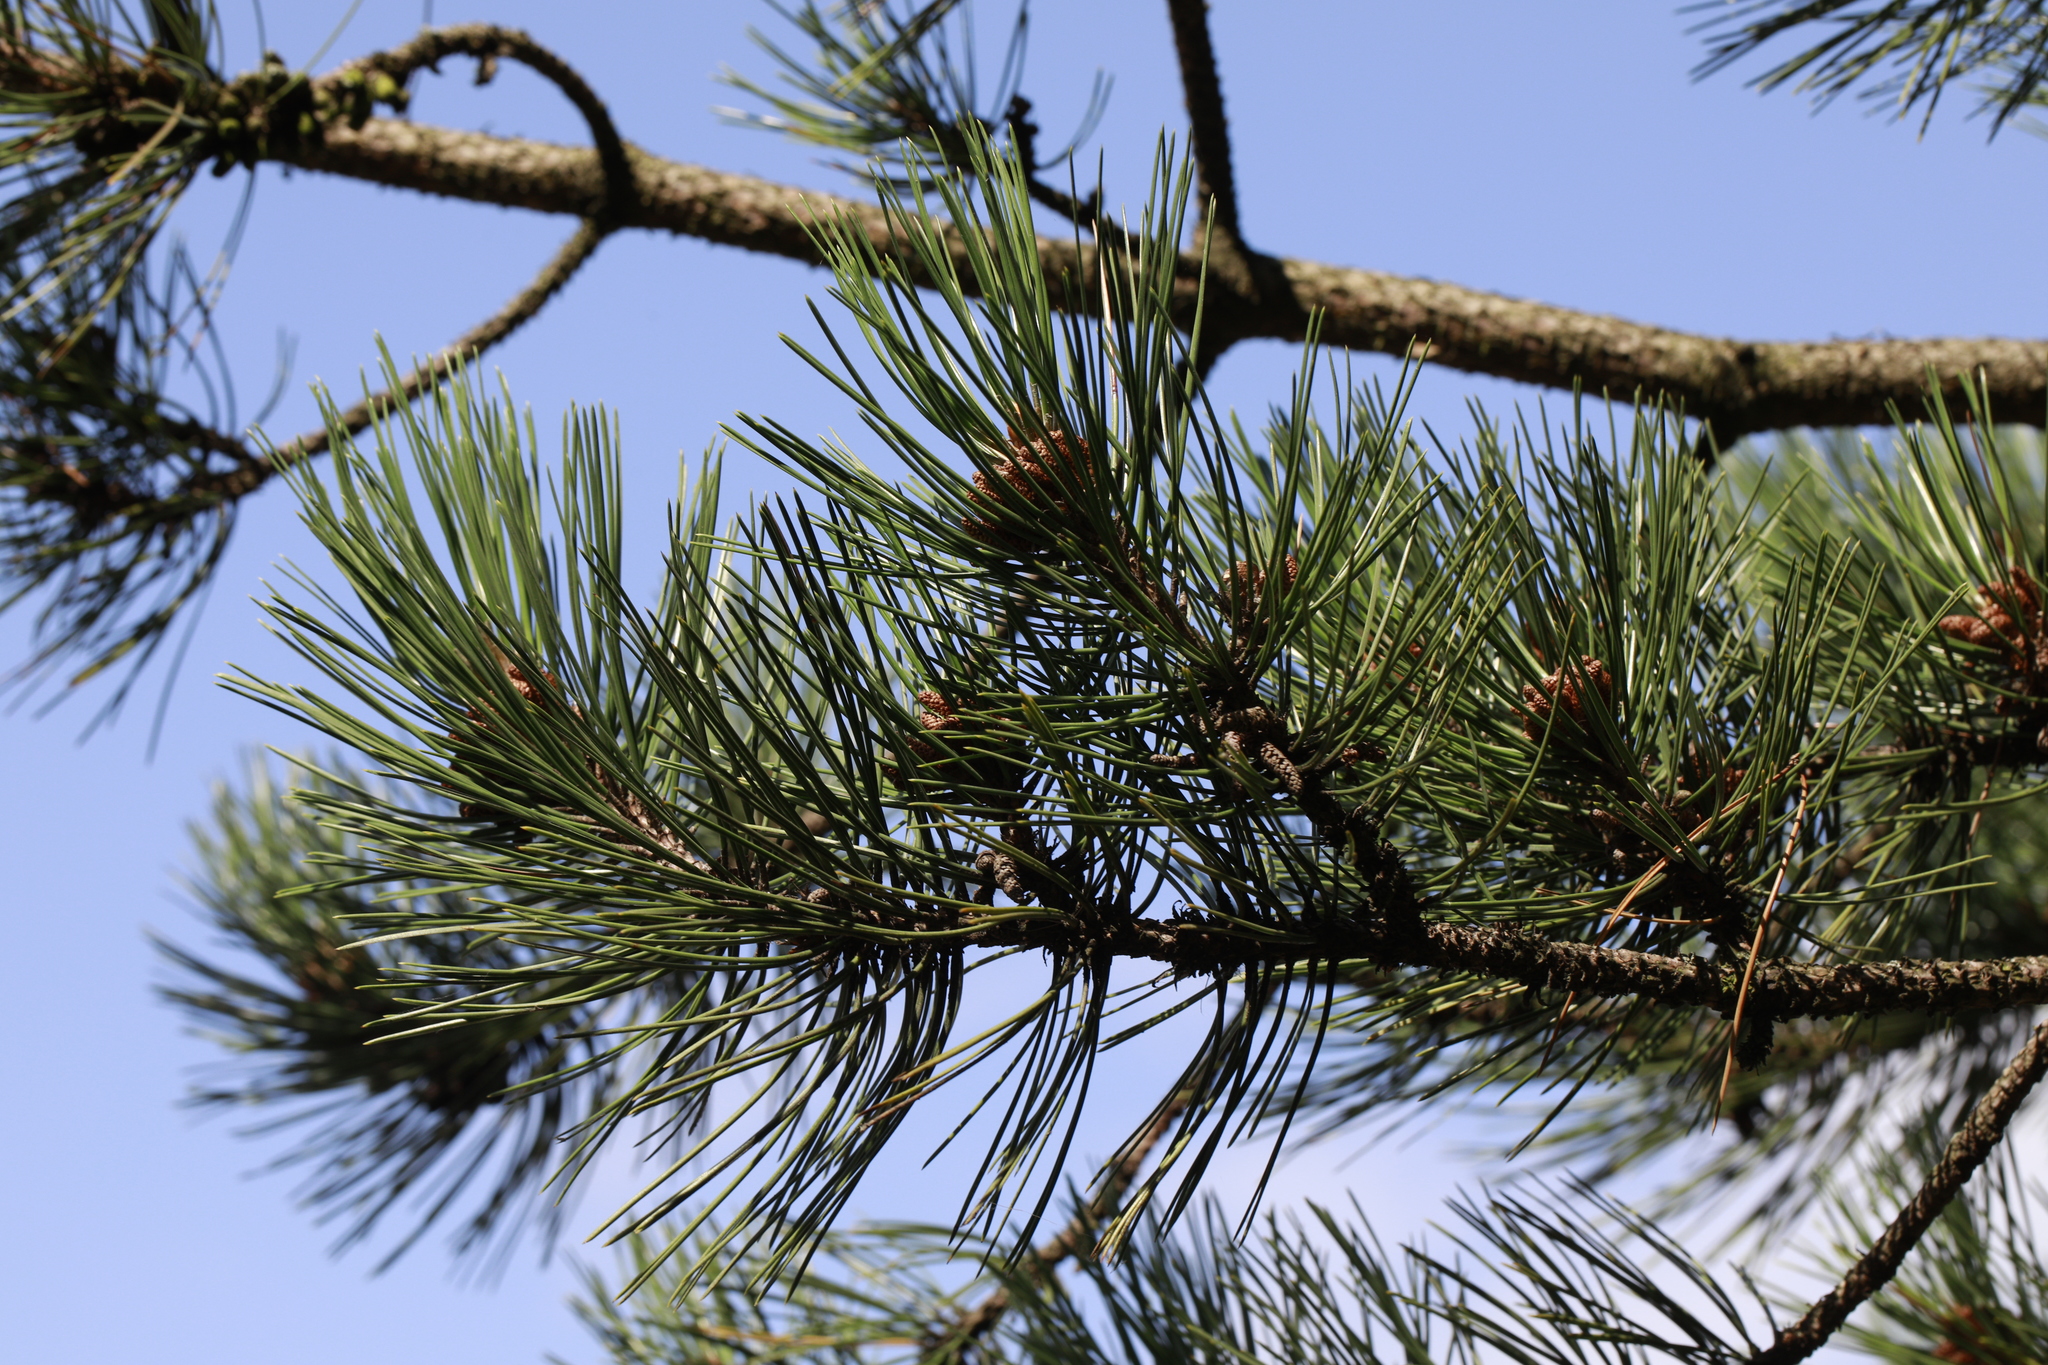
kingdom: Plantae
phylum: Tracheophyta
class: Pinopsida
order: Pinales
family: Pinaceae
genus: Pinus
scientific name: Pinus sylvestris
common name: Scots pine
